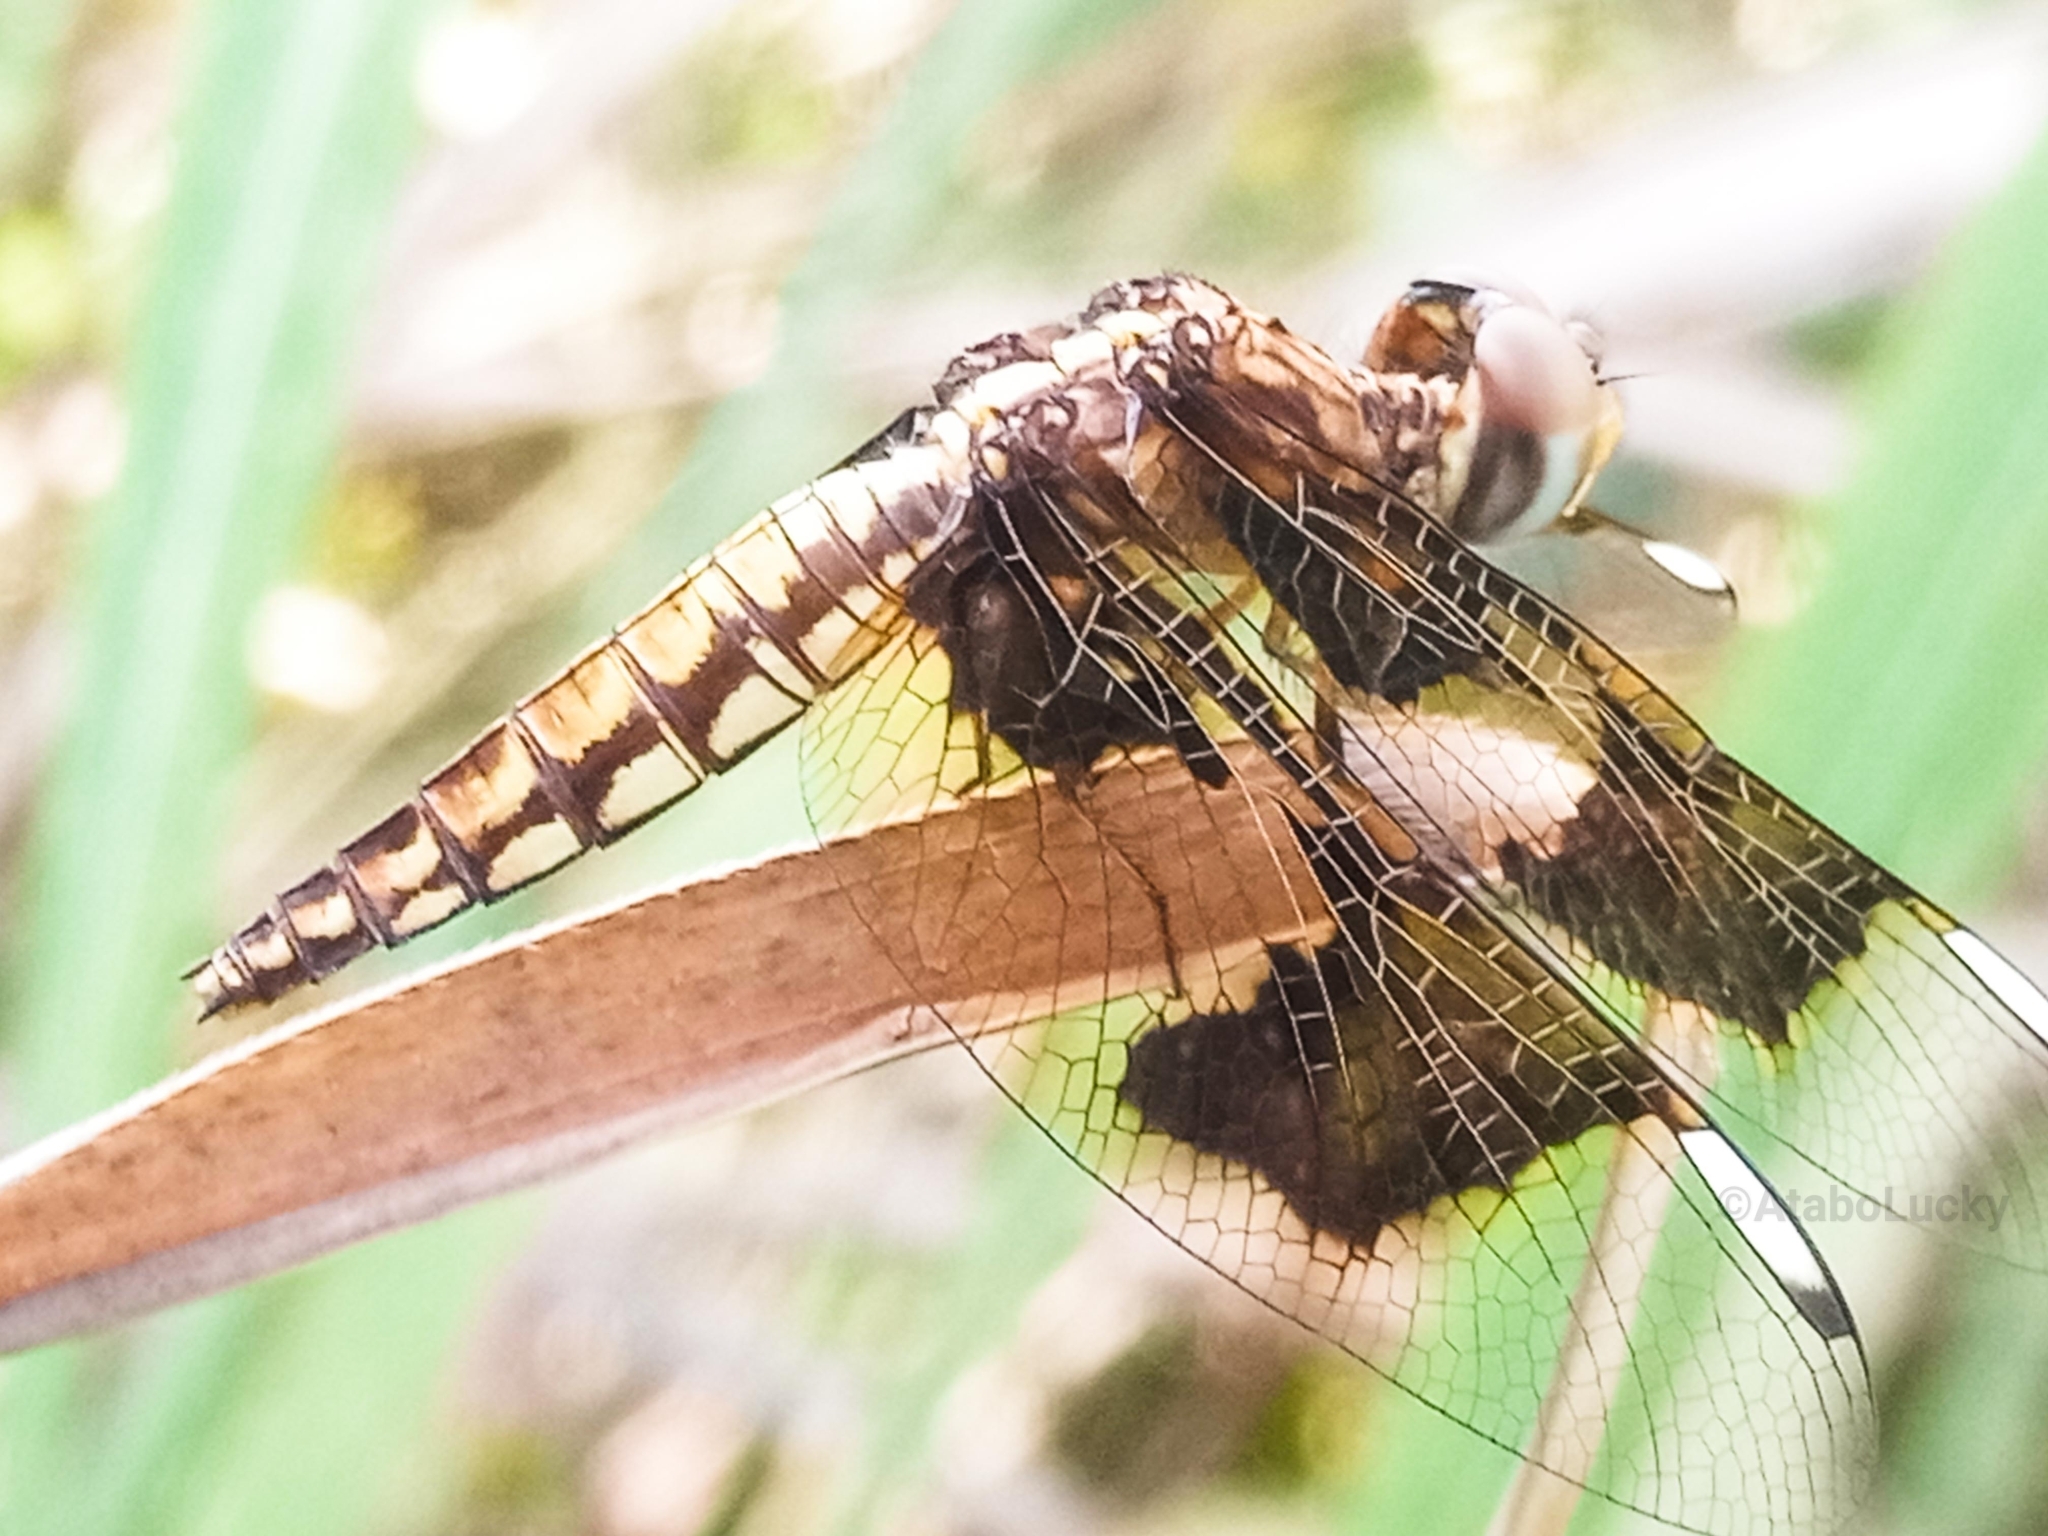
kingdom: Animalia
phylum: Arthropoda
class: Insecta
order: Odonata
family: Libellulidae
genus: Palpopleura
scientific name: Palpopleura portia
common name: Portia widow
